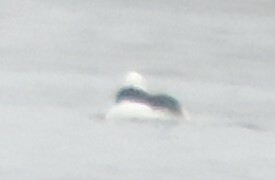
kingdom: Animalia
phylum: Chordata
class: Aves
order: Anseriformes
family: Anatidae
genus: Bucephala
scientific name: Bucephala albeola
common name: Bufflehead
